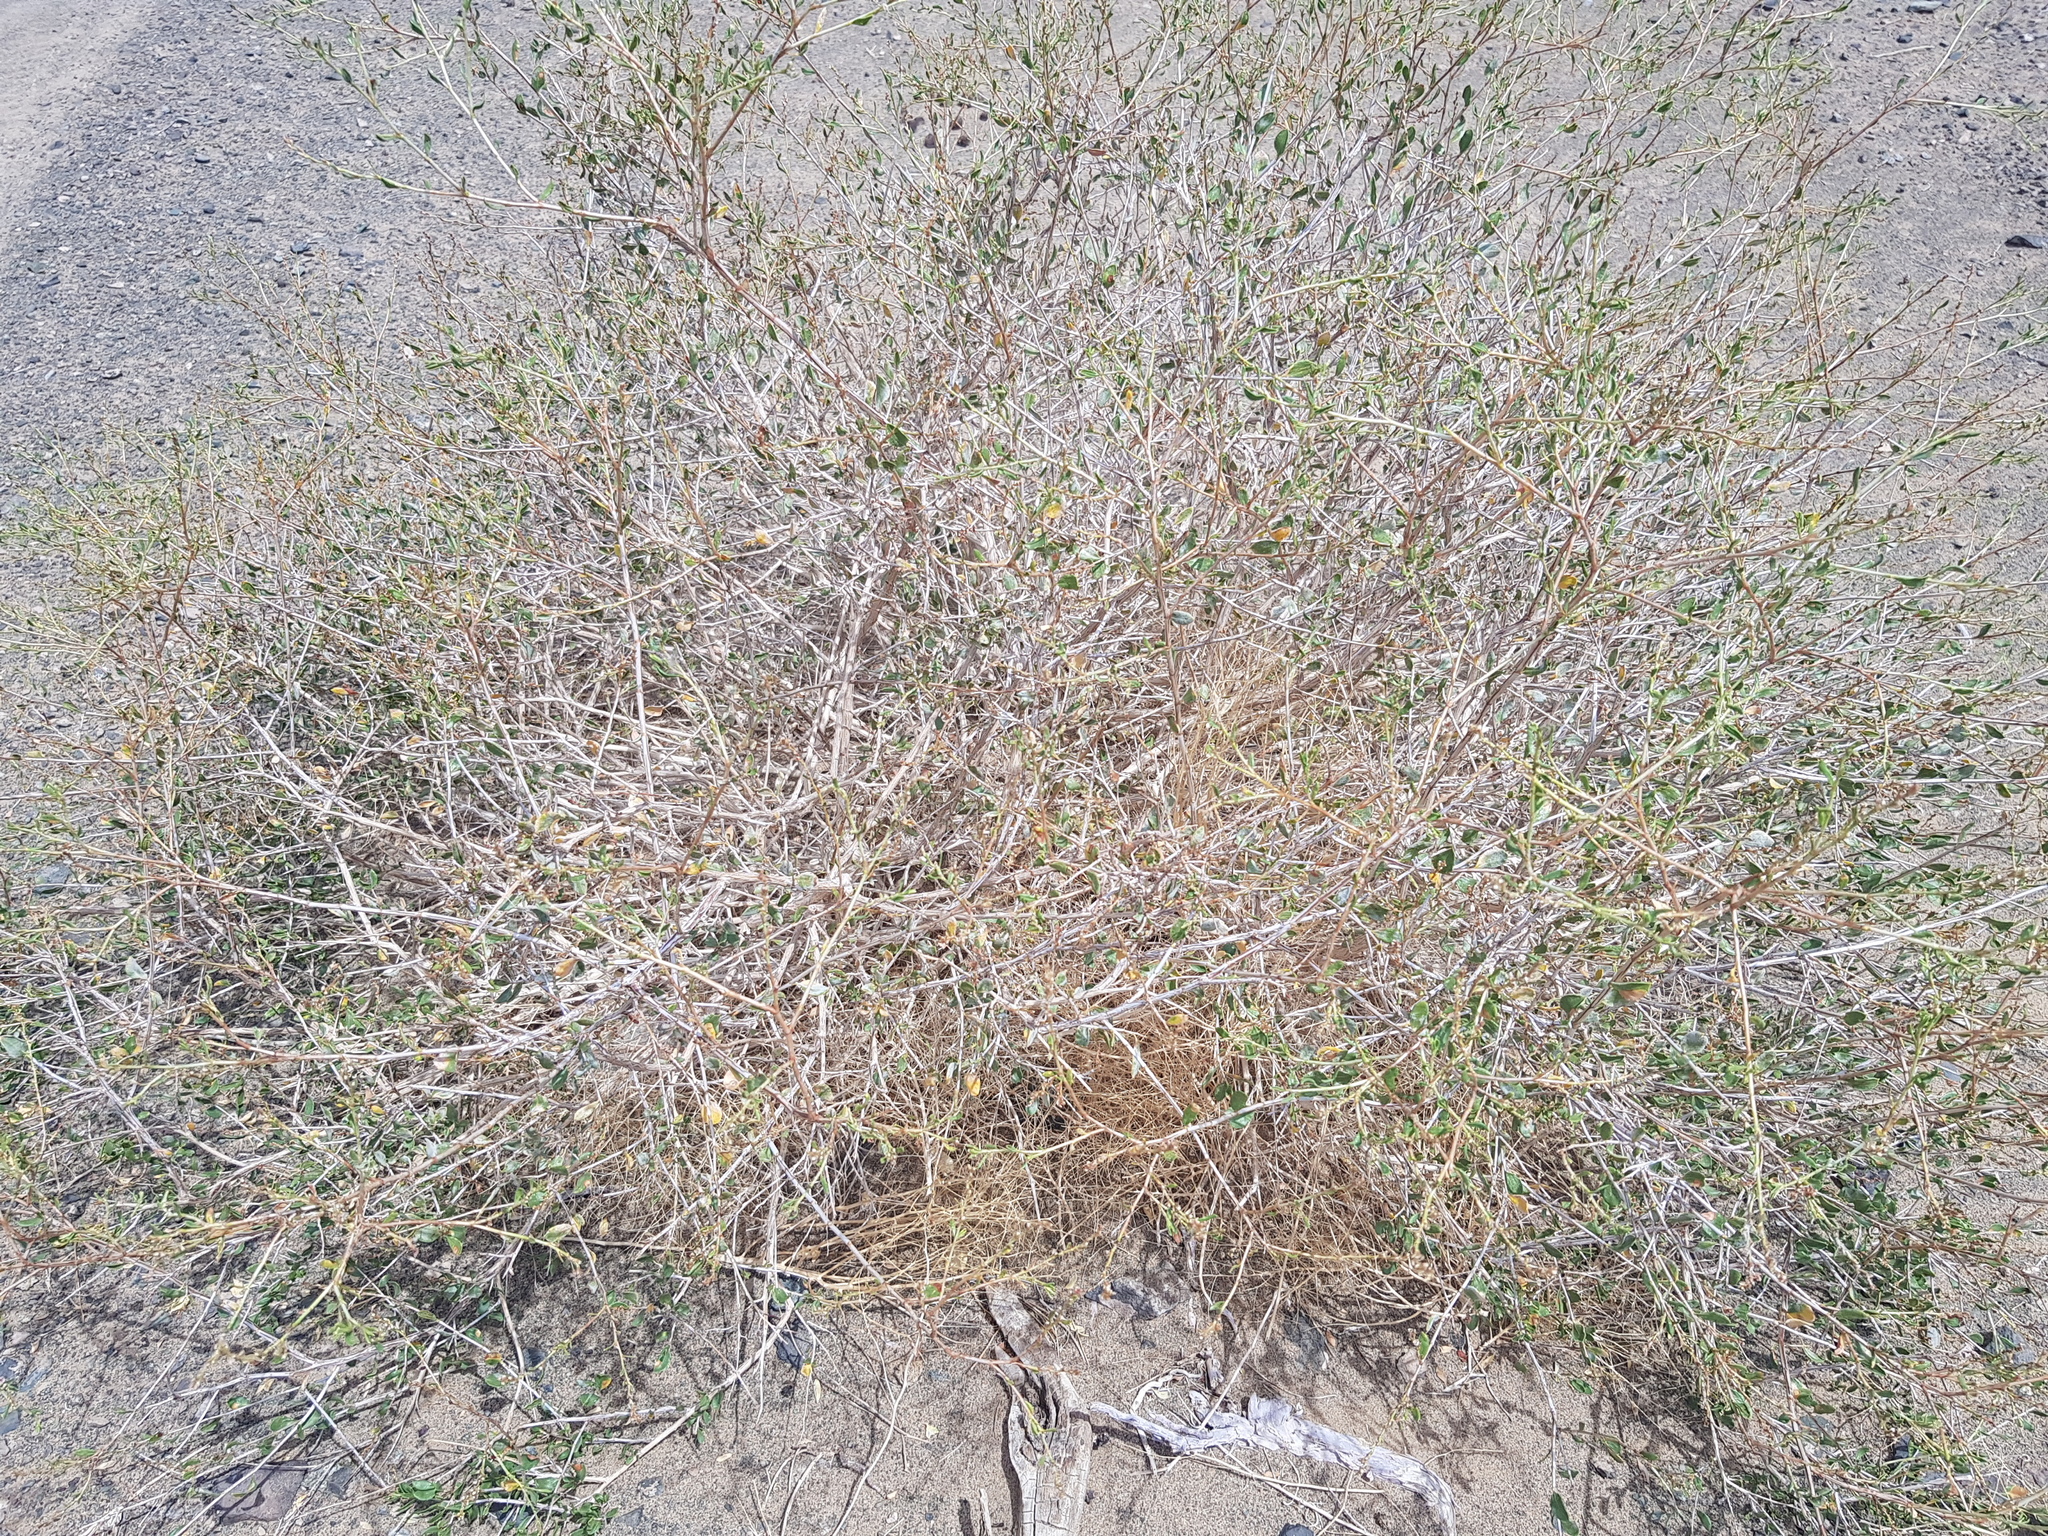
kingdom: Plantae
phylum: Tracheophyta
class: Magnoliopsida
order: Caryophyllales
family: Polygonaceae
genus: Atraphaxis
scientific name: Atraphaxis frutescens
